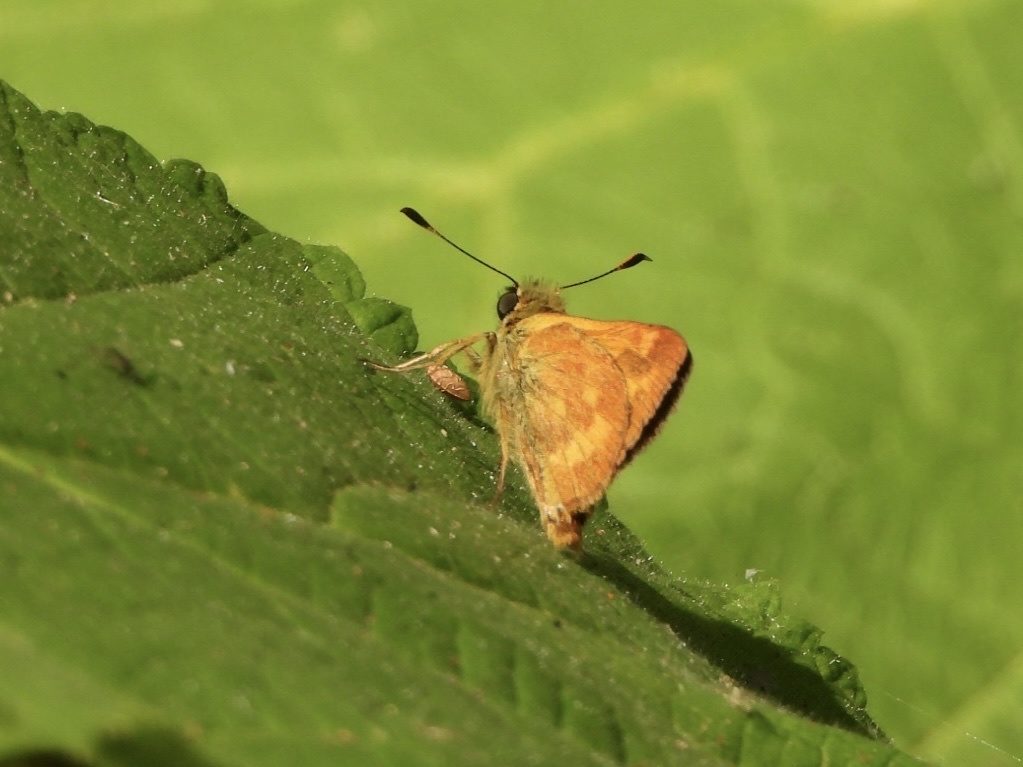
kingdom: Animalia
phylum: Arthropoda
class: Insecta
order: Lepidoptera
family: Hesperiidae
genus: Ochlodes
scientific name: Ochlodes sylvanoides
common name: Woodland skipper
